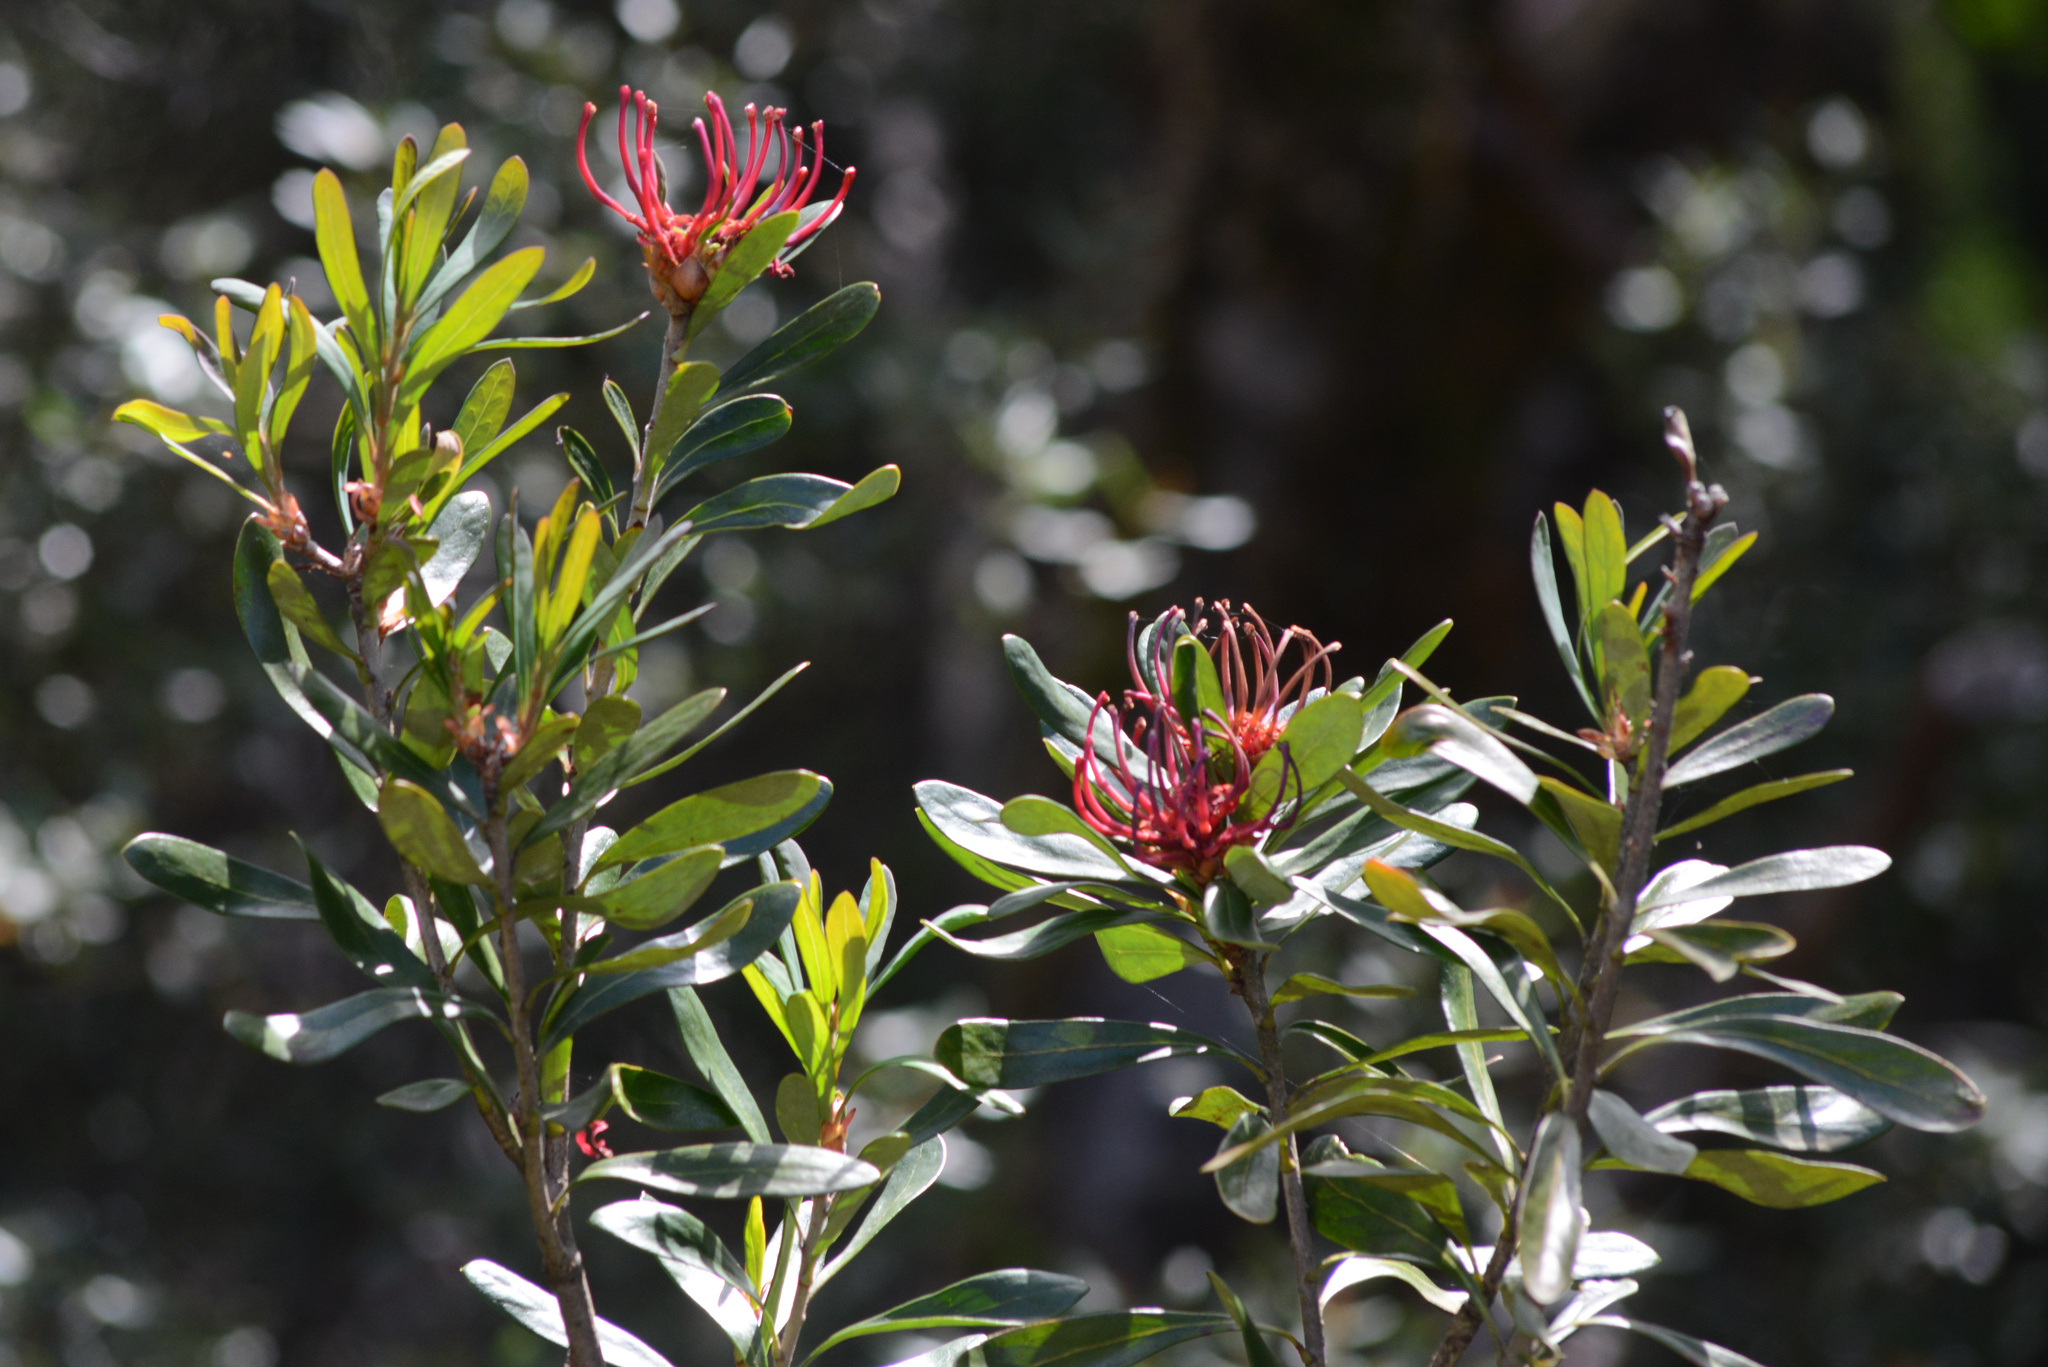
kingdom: Plantae
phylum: Tracheophyta
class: Magnoliopsida
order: Proteales
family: Proteaceae
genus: Telopea
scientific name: Telopea truncata
